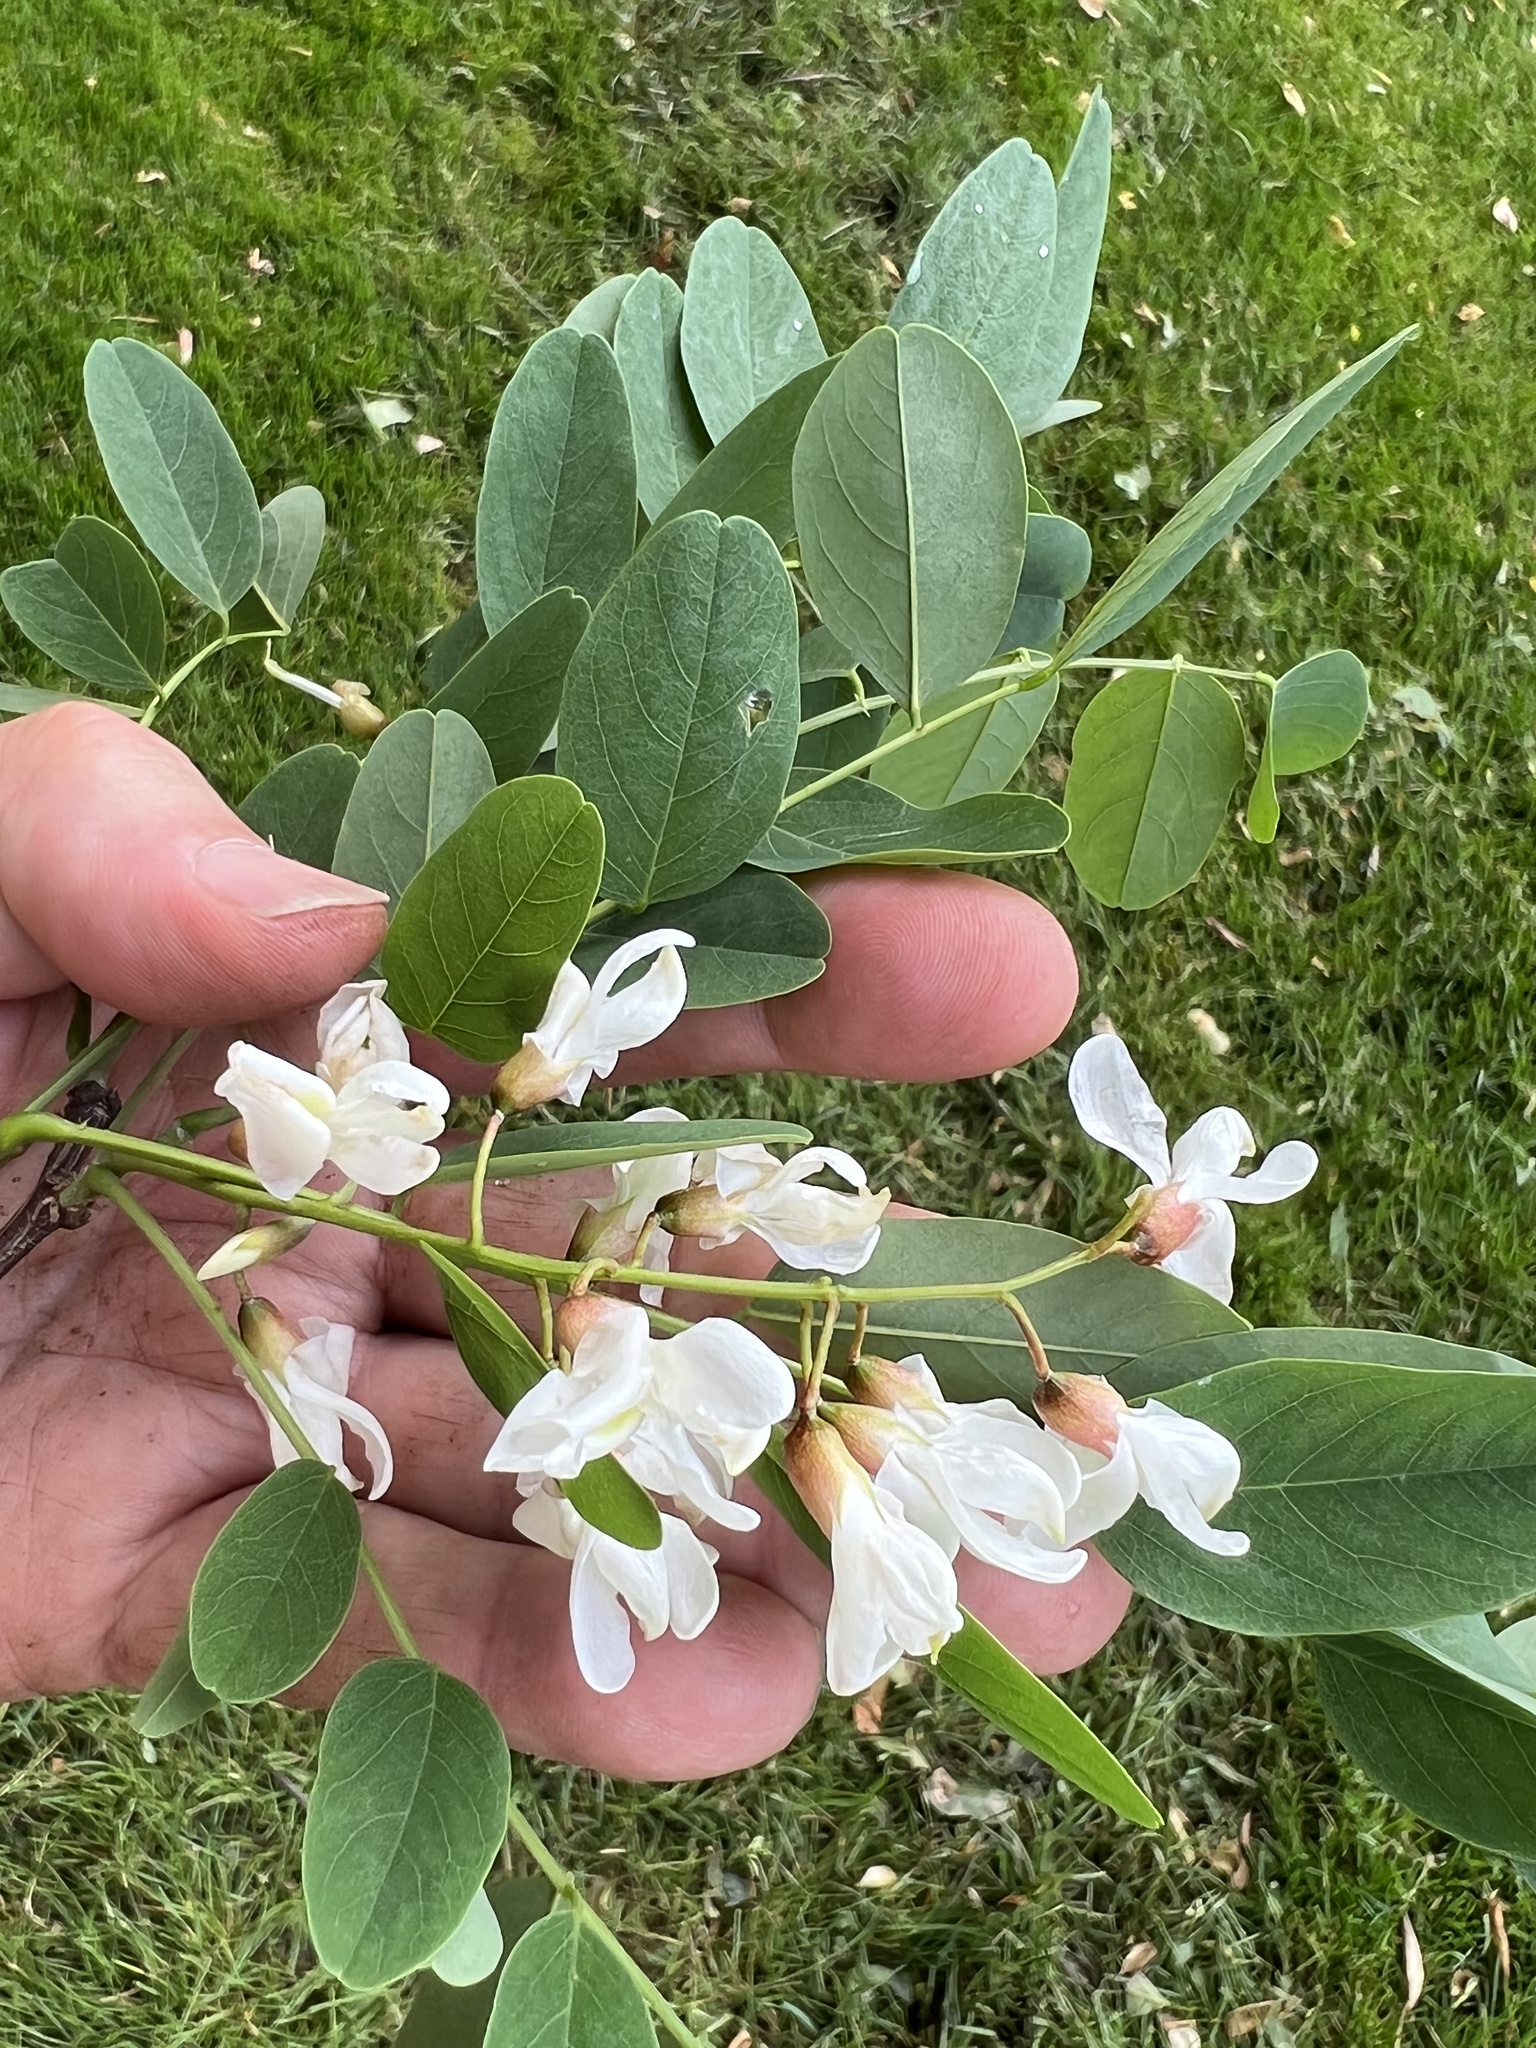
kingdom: Plantae
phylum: Tracheophyta
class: Magnoliopsida
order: Fabales
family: Fabaceae
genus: Robinia
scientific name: Robinia pseudoacacia
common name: Black locust
